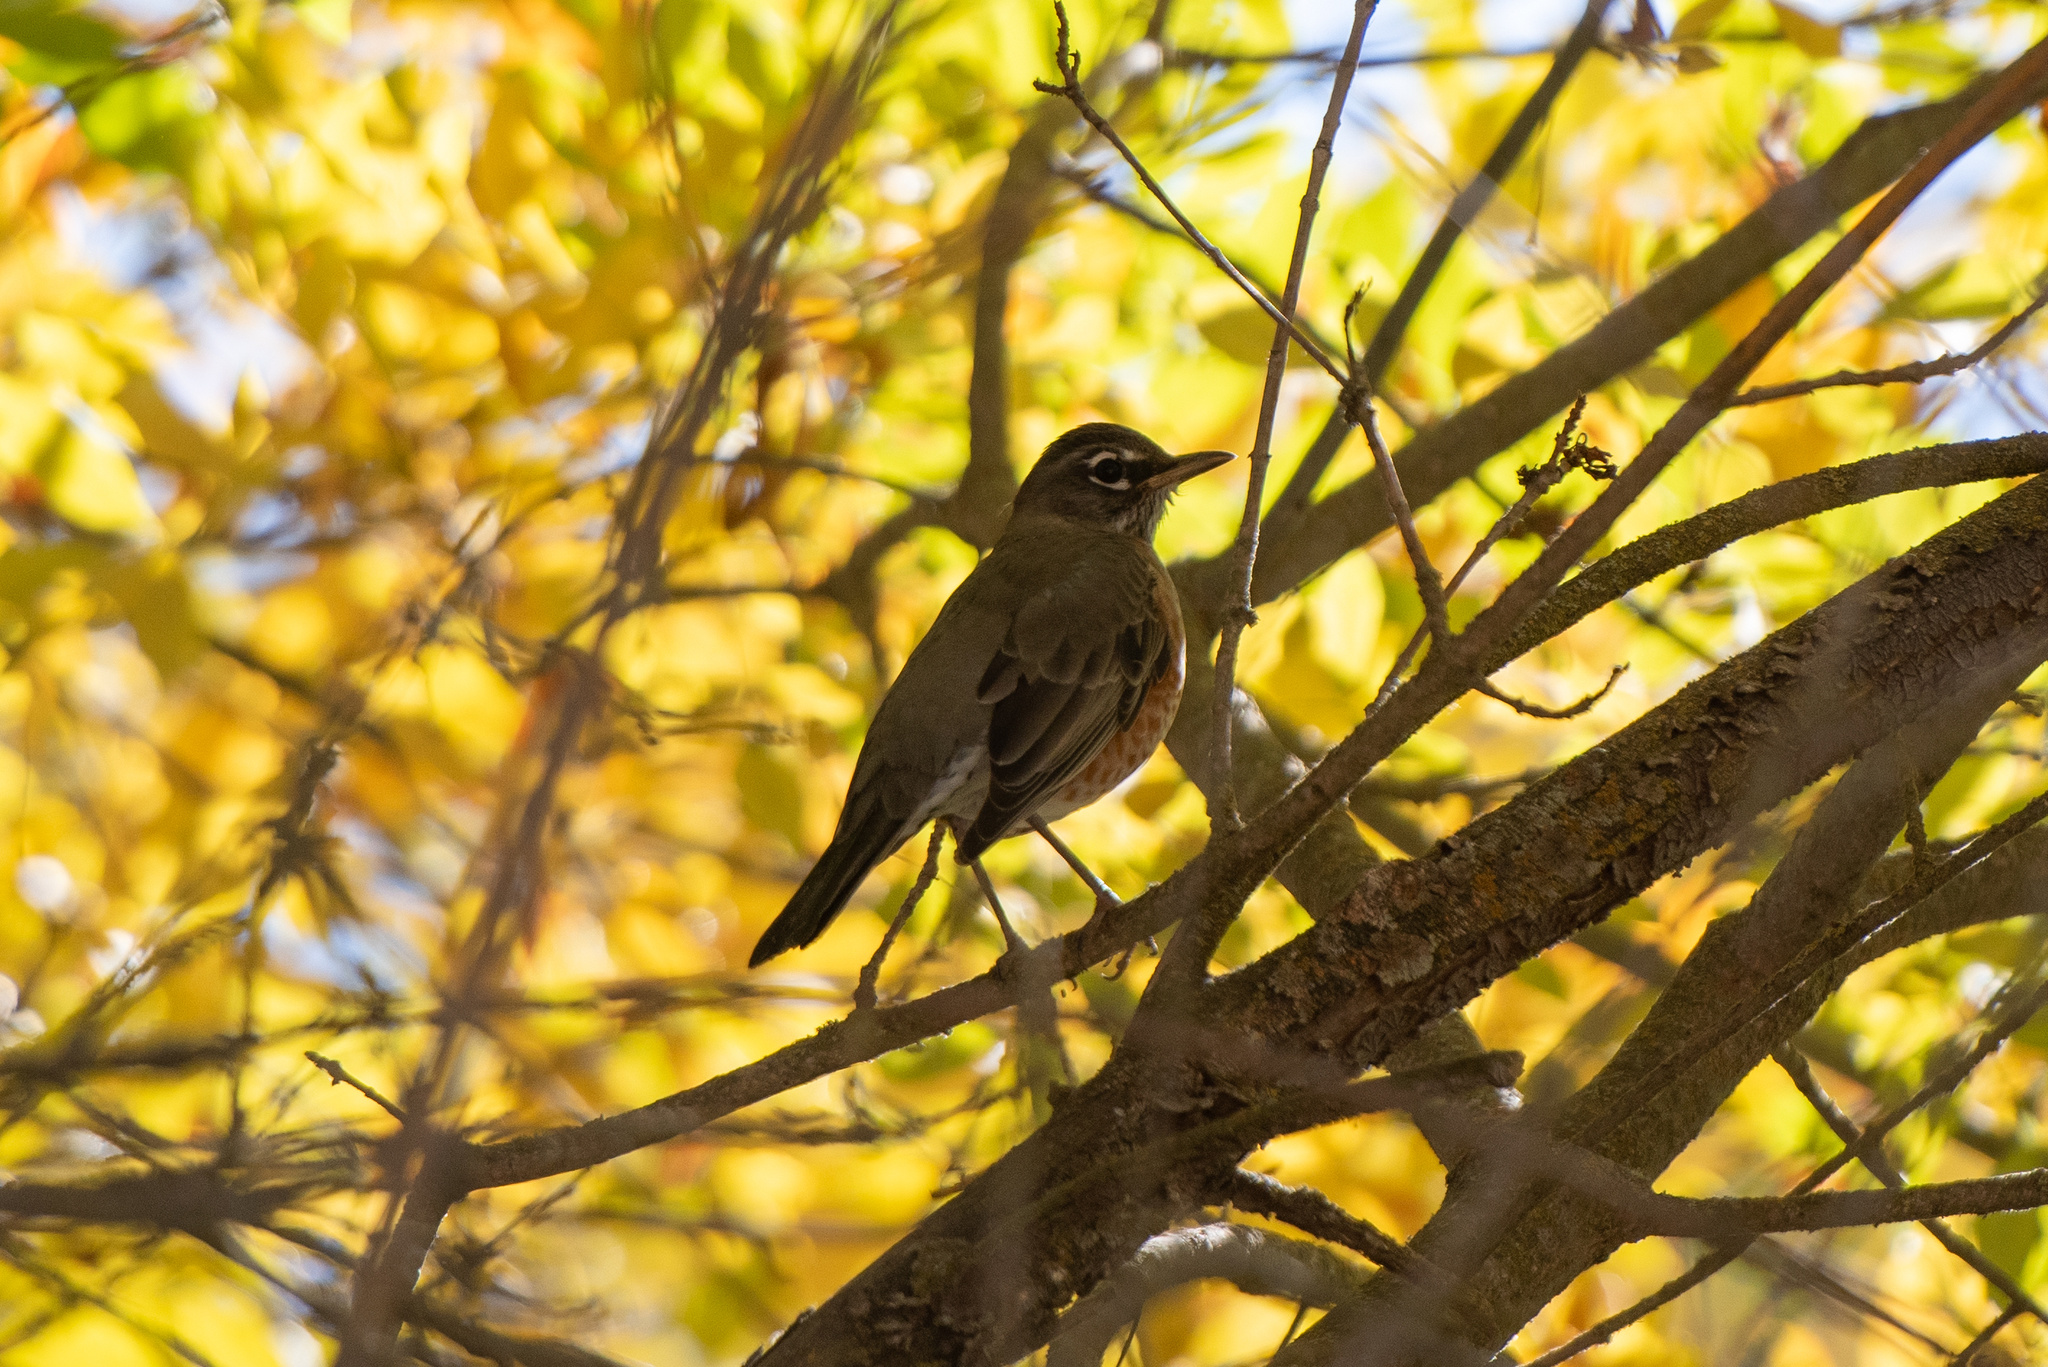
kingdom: Animalia
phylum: Chordata
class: Aves
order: Passeriformes
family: Turdidae
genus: Turdus
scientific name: Turdus migratorius
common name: American robin
